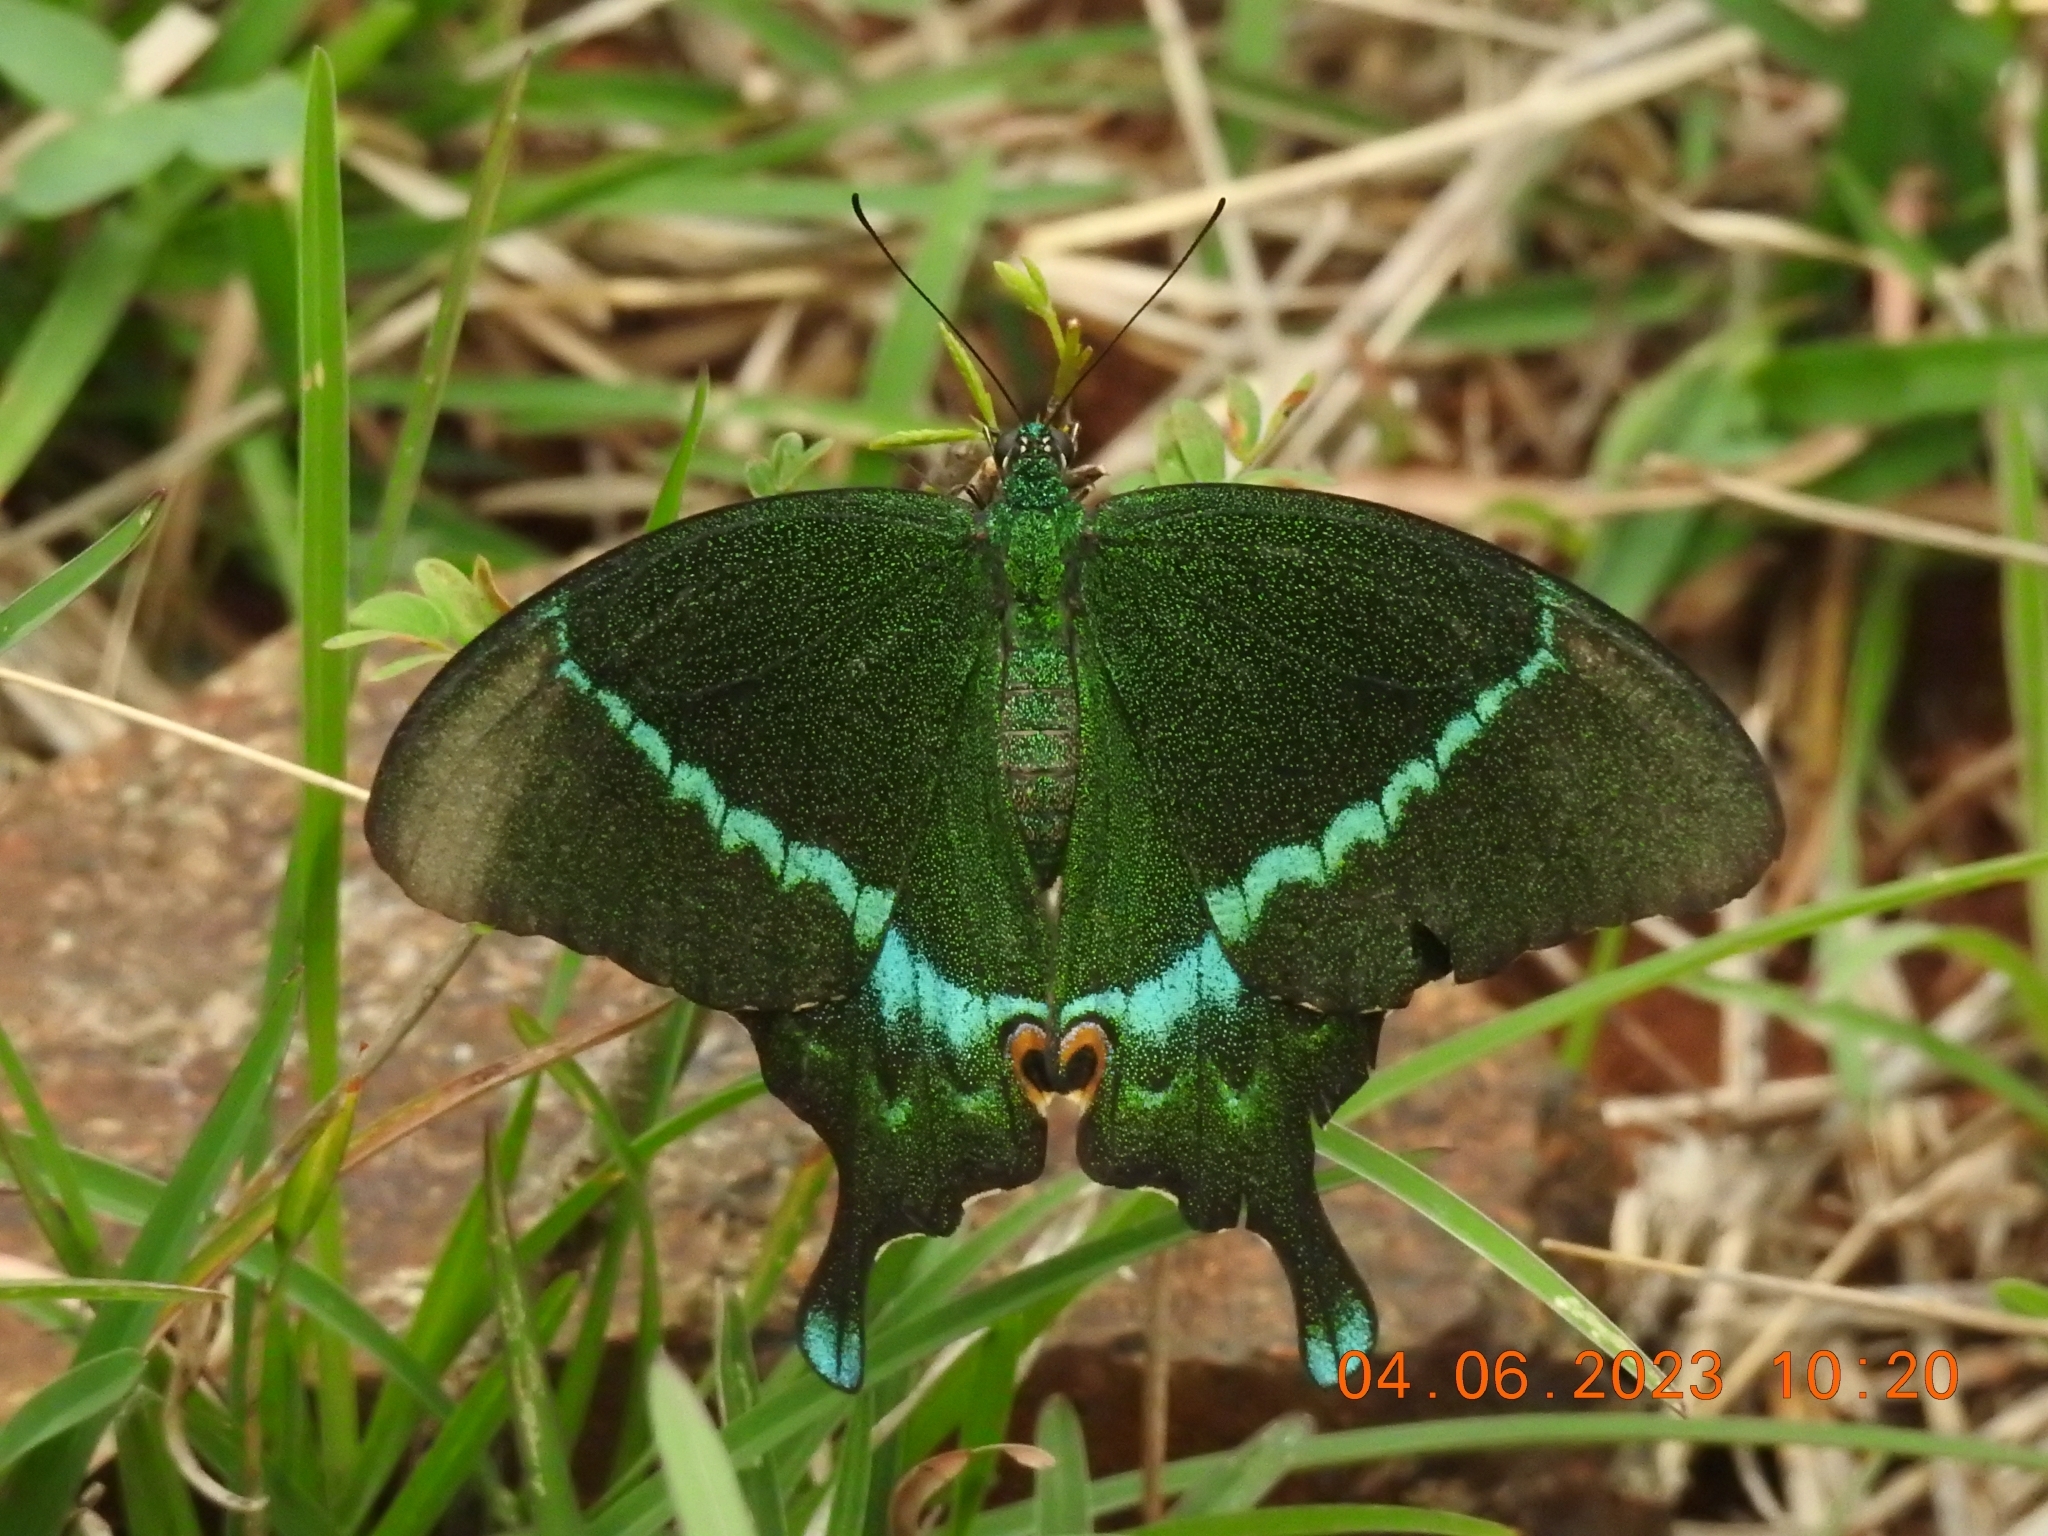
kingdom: Animalia
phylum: Arthropoda
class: Insecta
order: Lepidoptera
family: Papilionidae
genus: Papilio
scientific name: Papilio crino
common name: Common banded peacock
